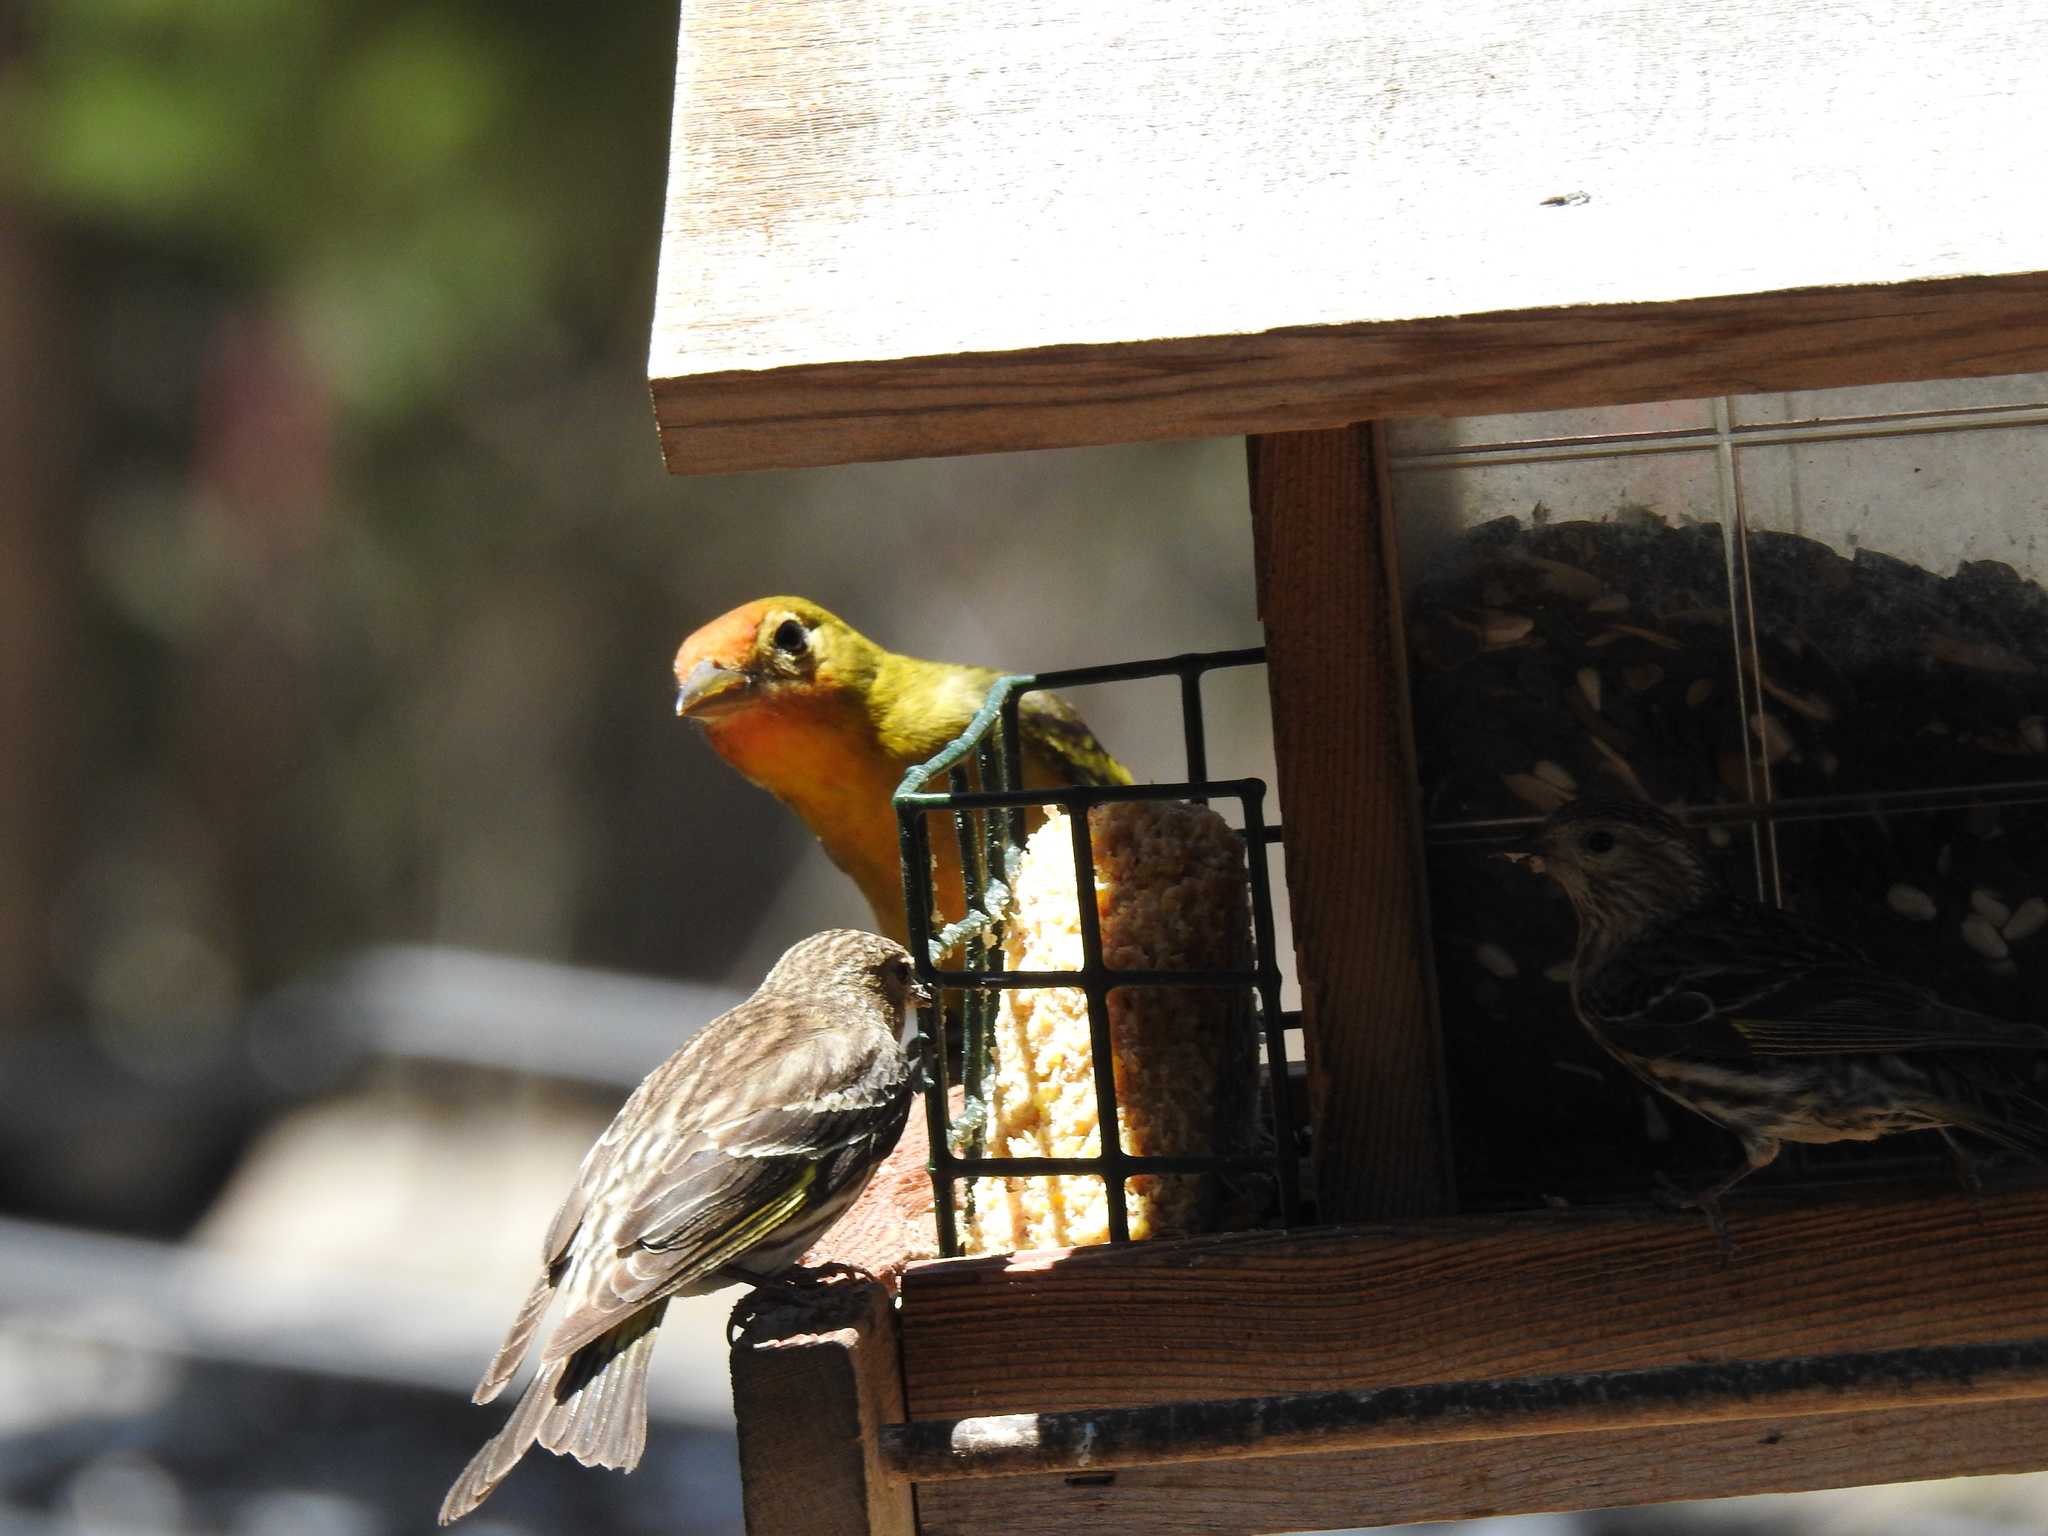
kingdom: Animalia
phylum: Chordata
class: Aves
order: Passeriformes
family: Fringillidae
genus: Spinus
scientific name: Spinus pinus
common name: Pine siskin
